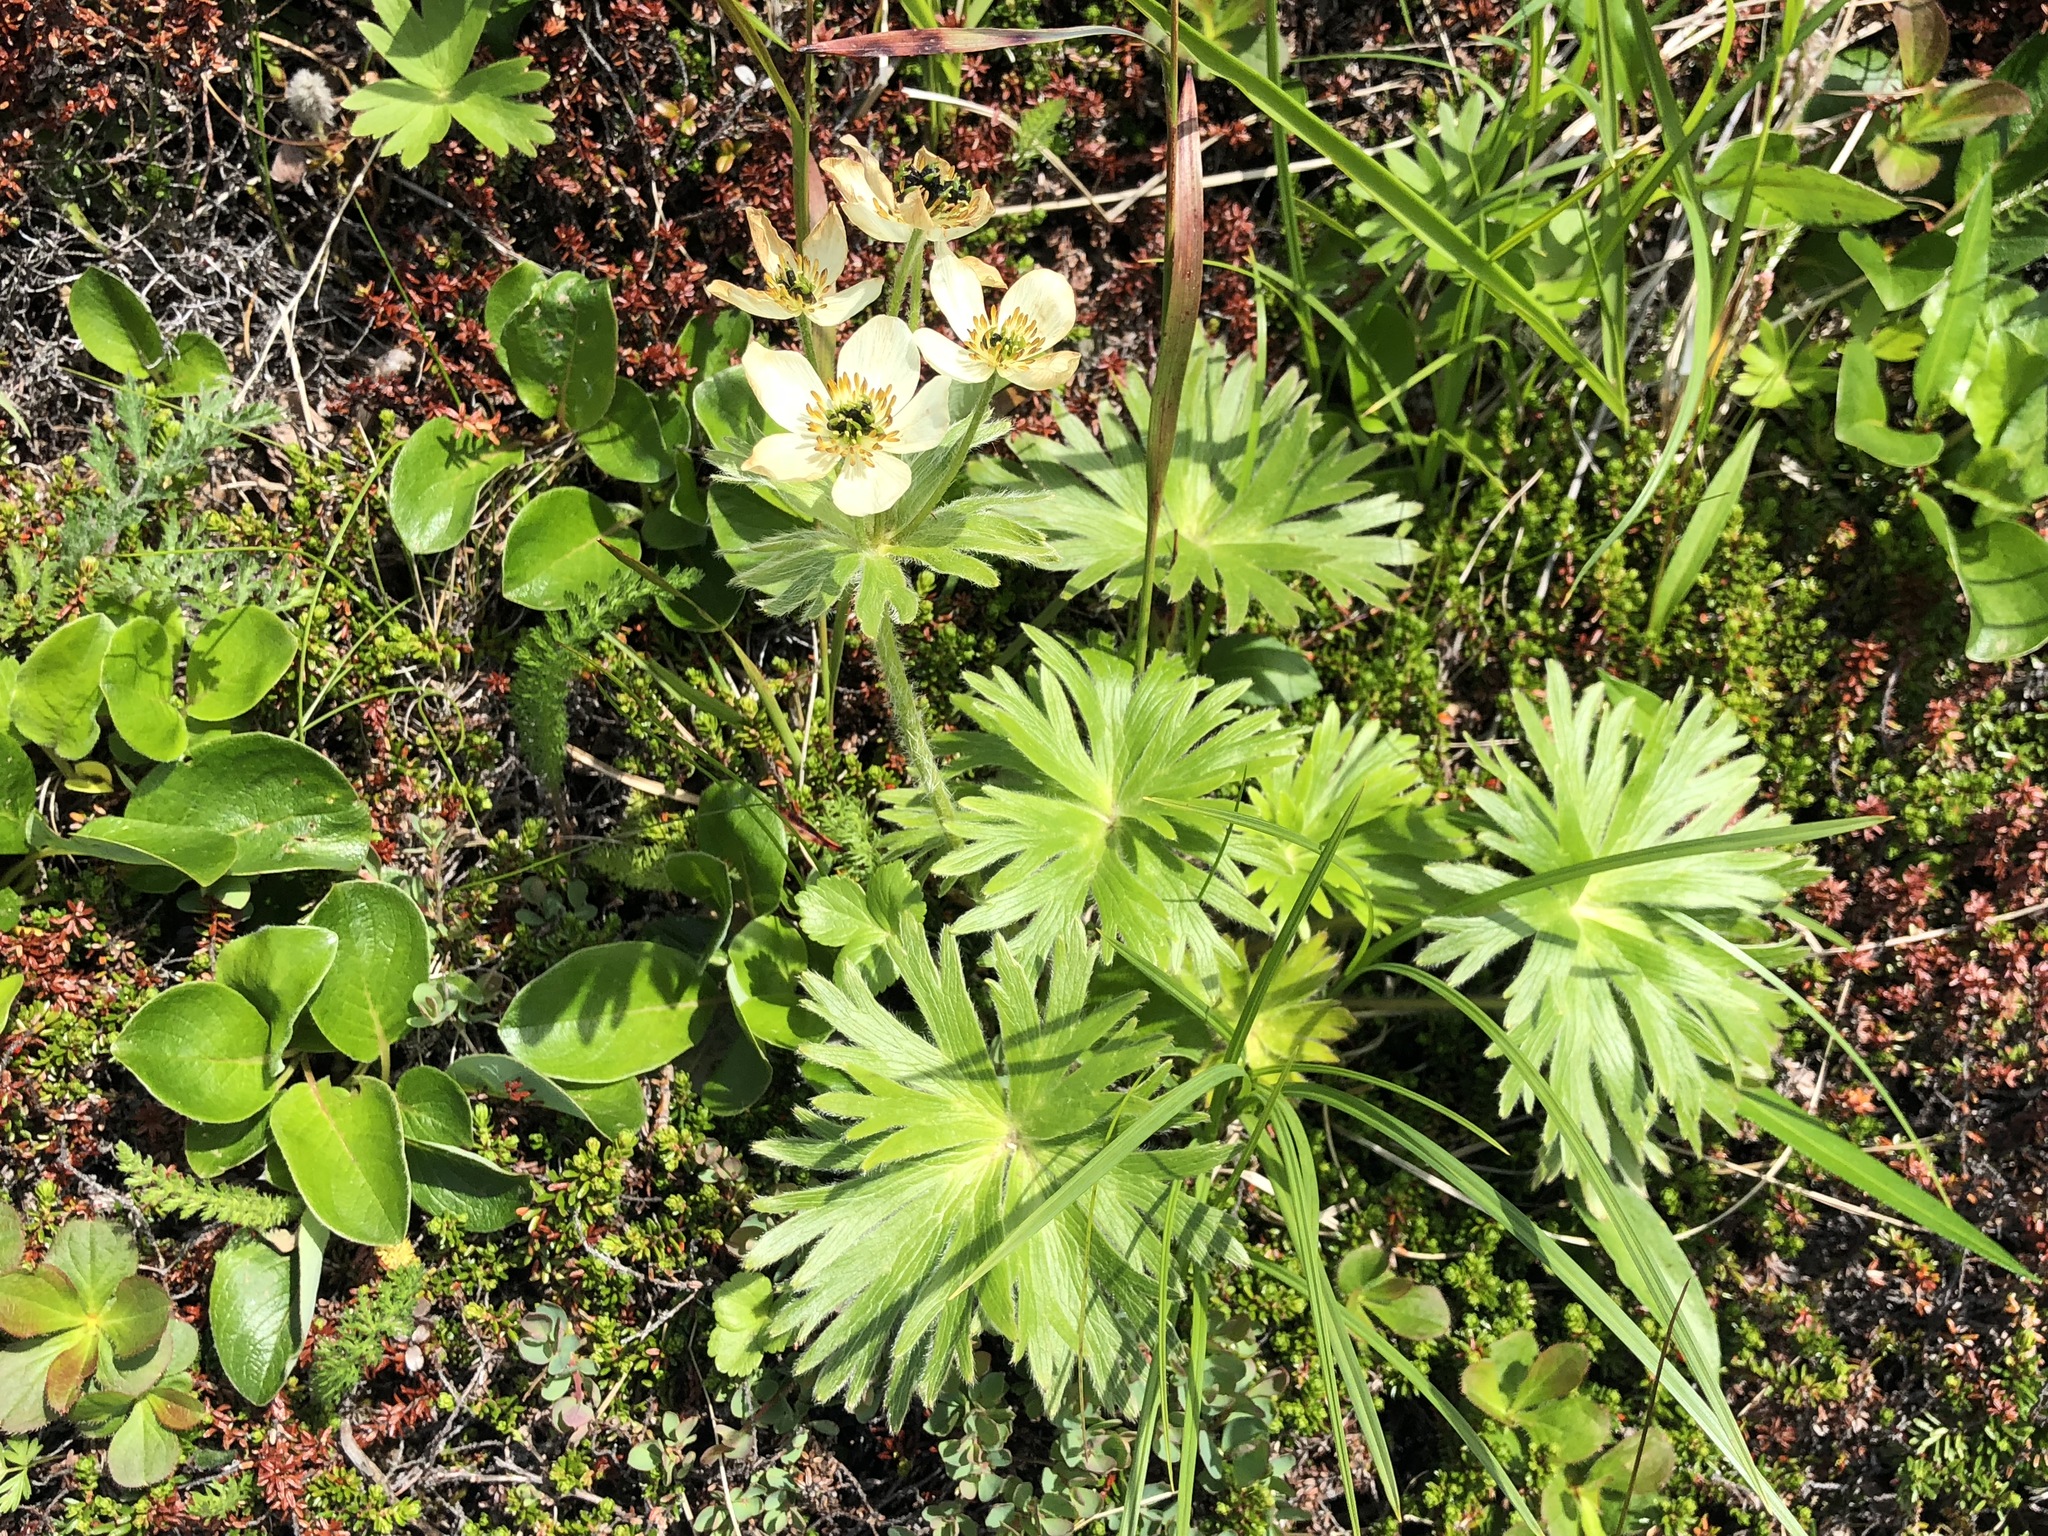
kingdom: Plantae
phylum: Tracheophyta
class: Magnoliopsida
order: Ranunculales
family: Ranunculaceae
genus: Anemonastrum
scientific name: Anemonastrum narcissiflorum
